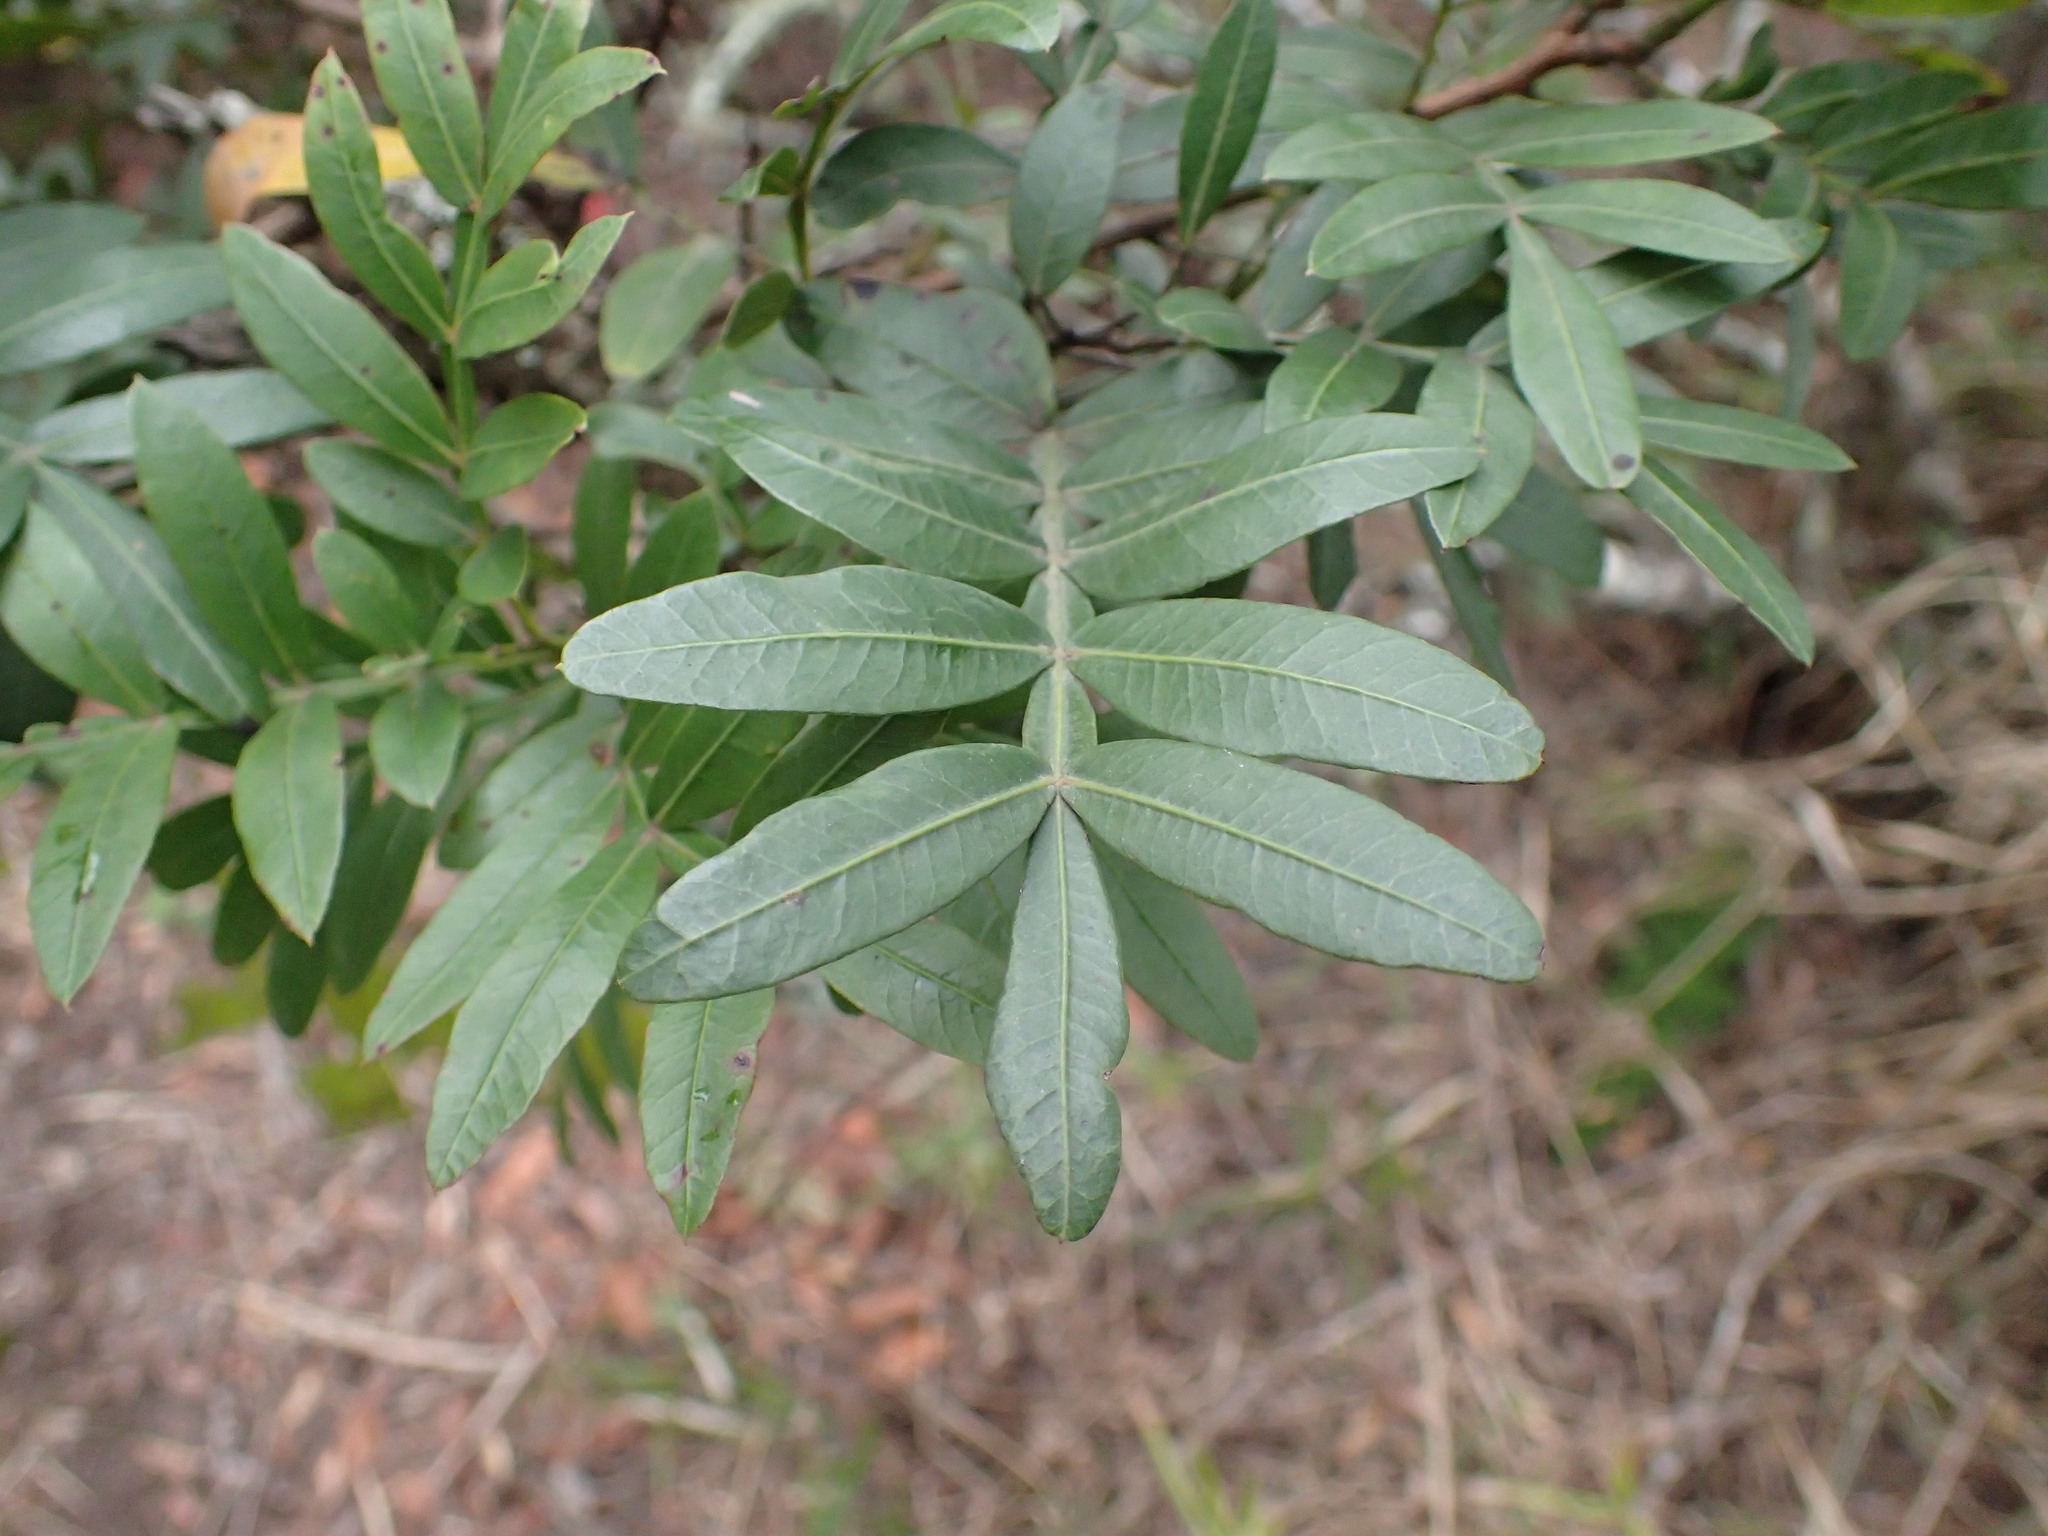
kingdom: Plantae
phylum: Tracheophyta
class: Magnoliopsida
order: Sapindales
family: Anacardiaceae
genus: Loxostylis
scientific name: Loxostylis alata
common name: Wild peppertree
